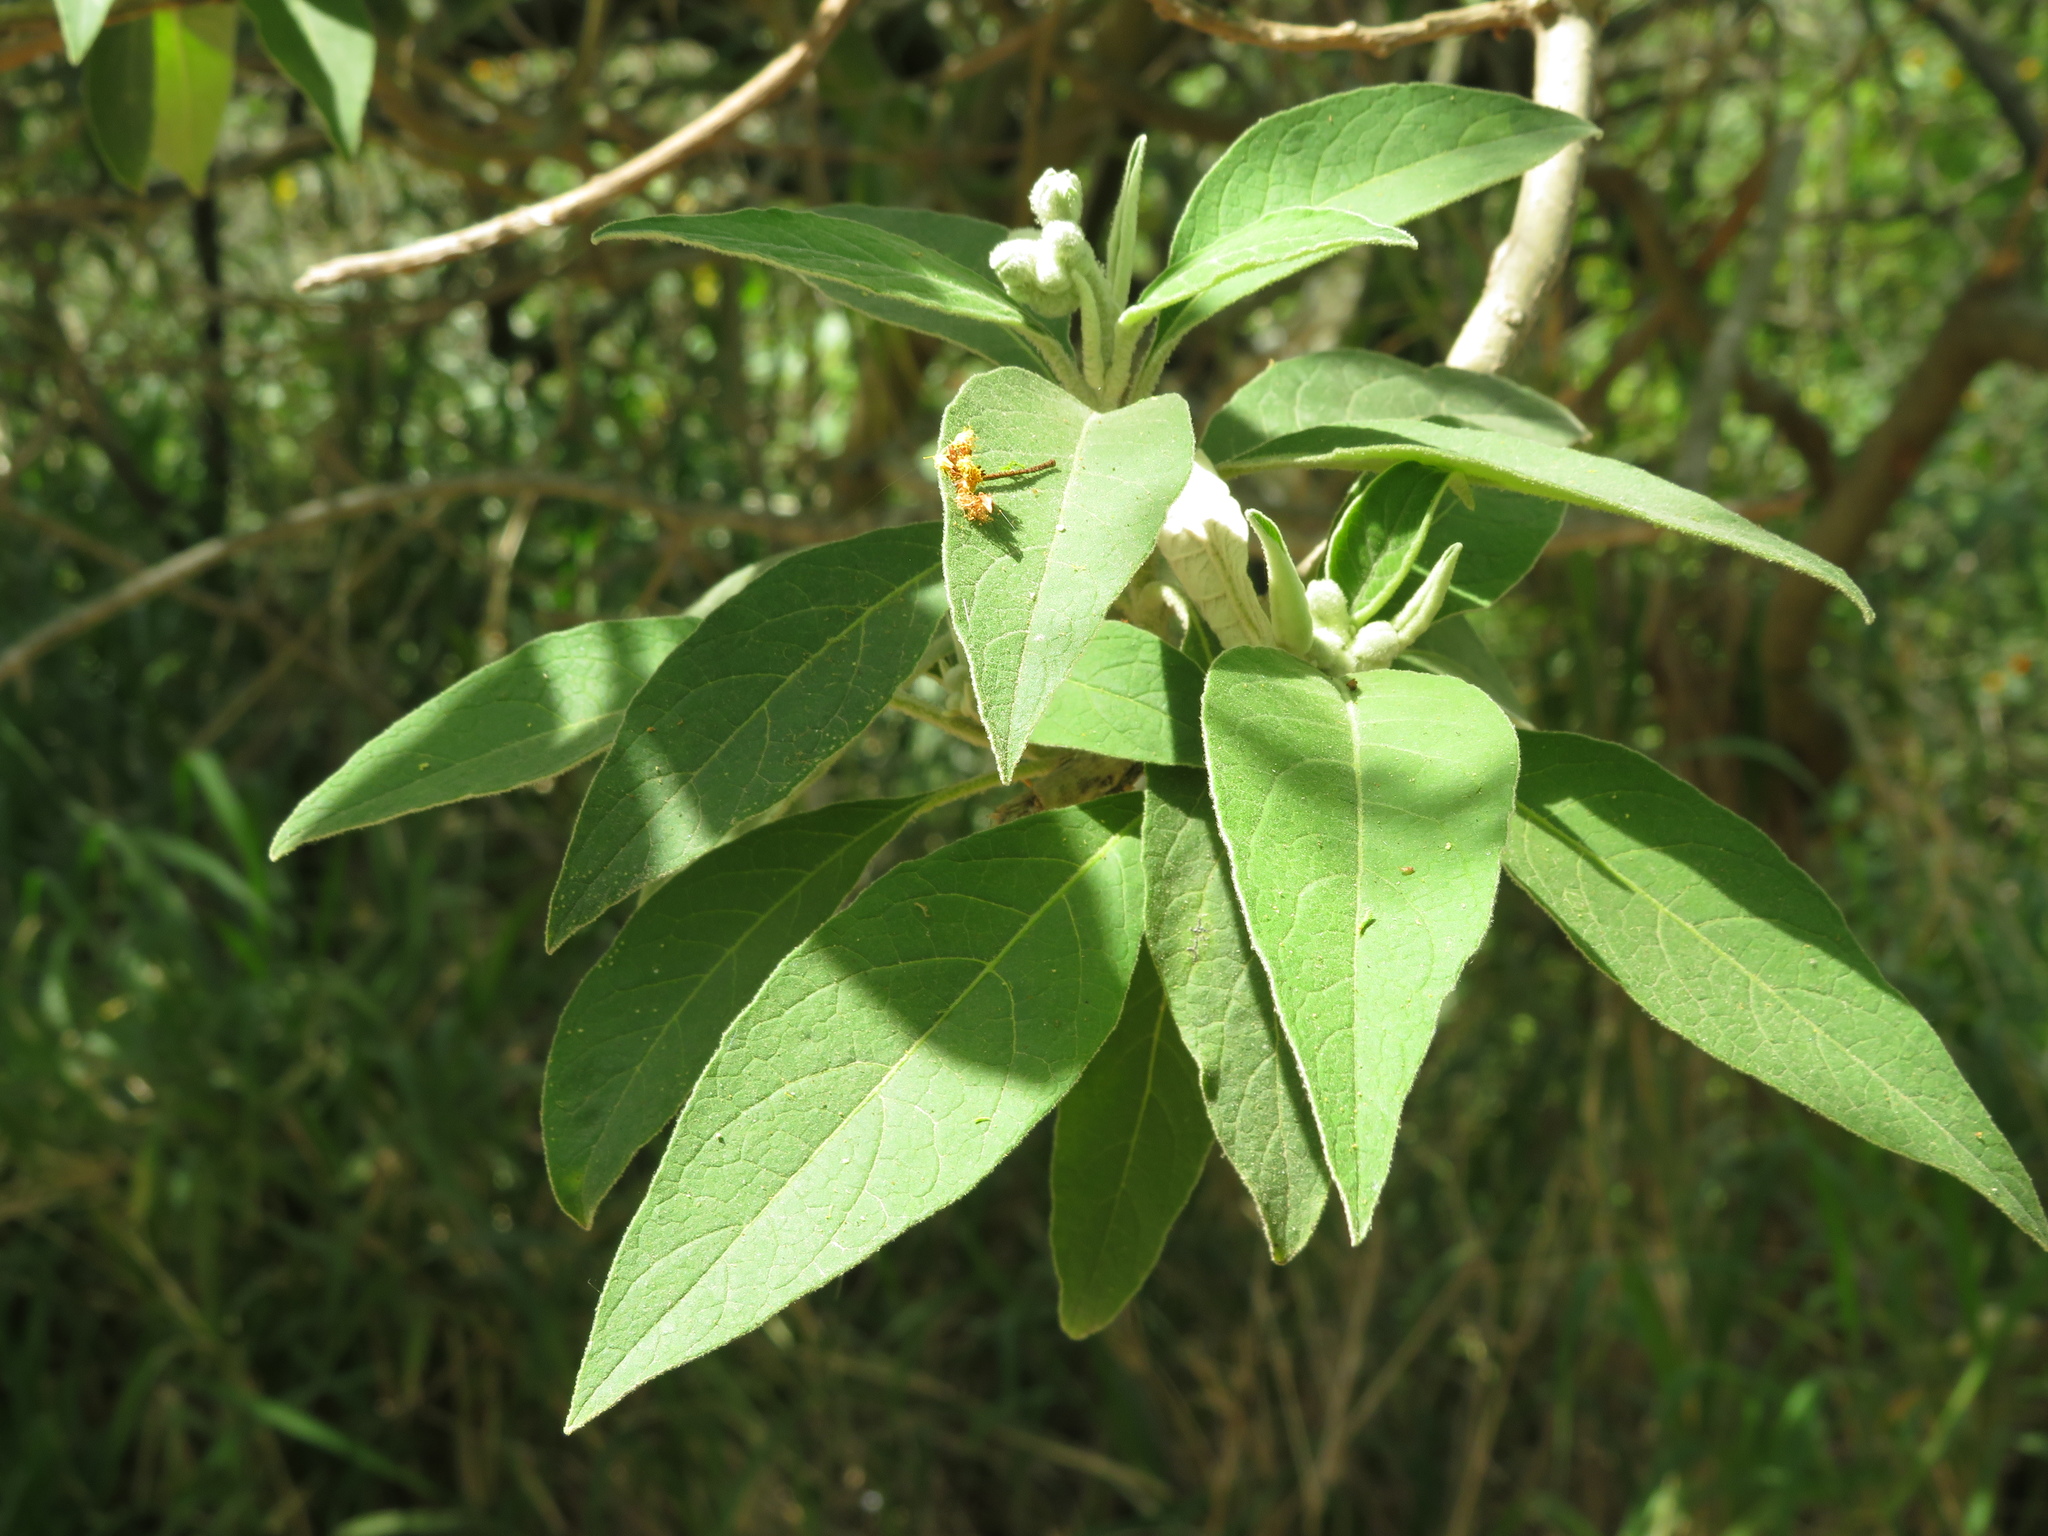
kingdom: Plantae
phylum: Tracheophyta
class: Magnoliopsida
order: Solanales
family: Solanaceae
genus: Solanum
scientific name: Solanum granulosoleprosum
